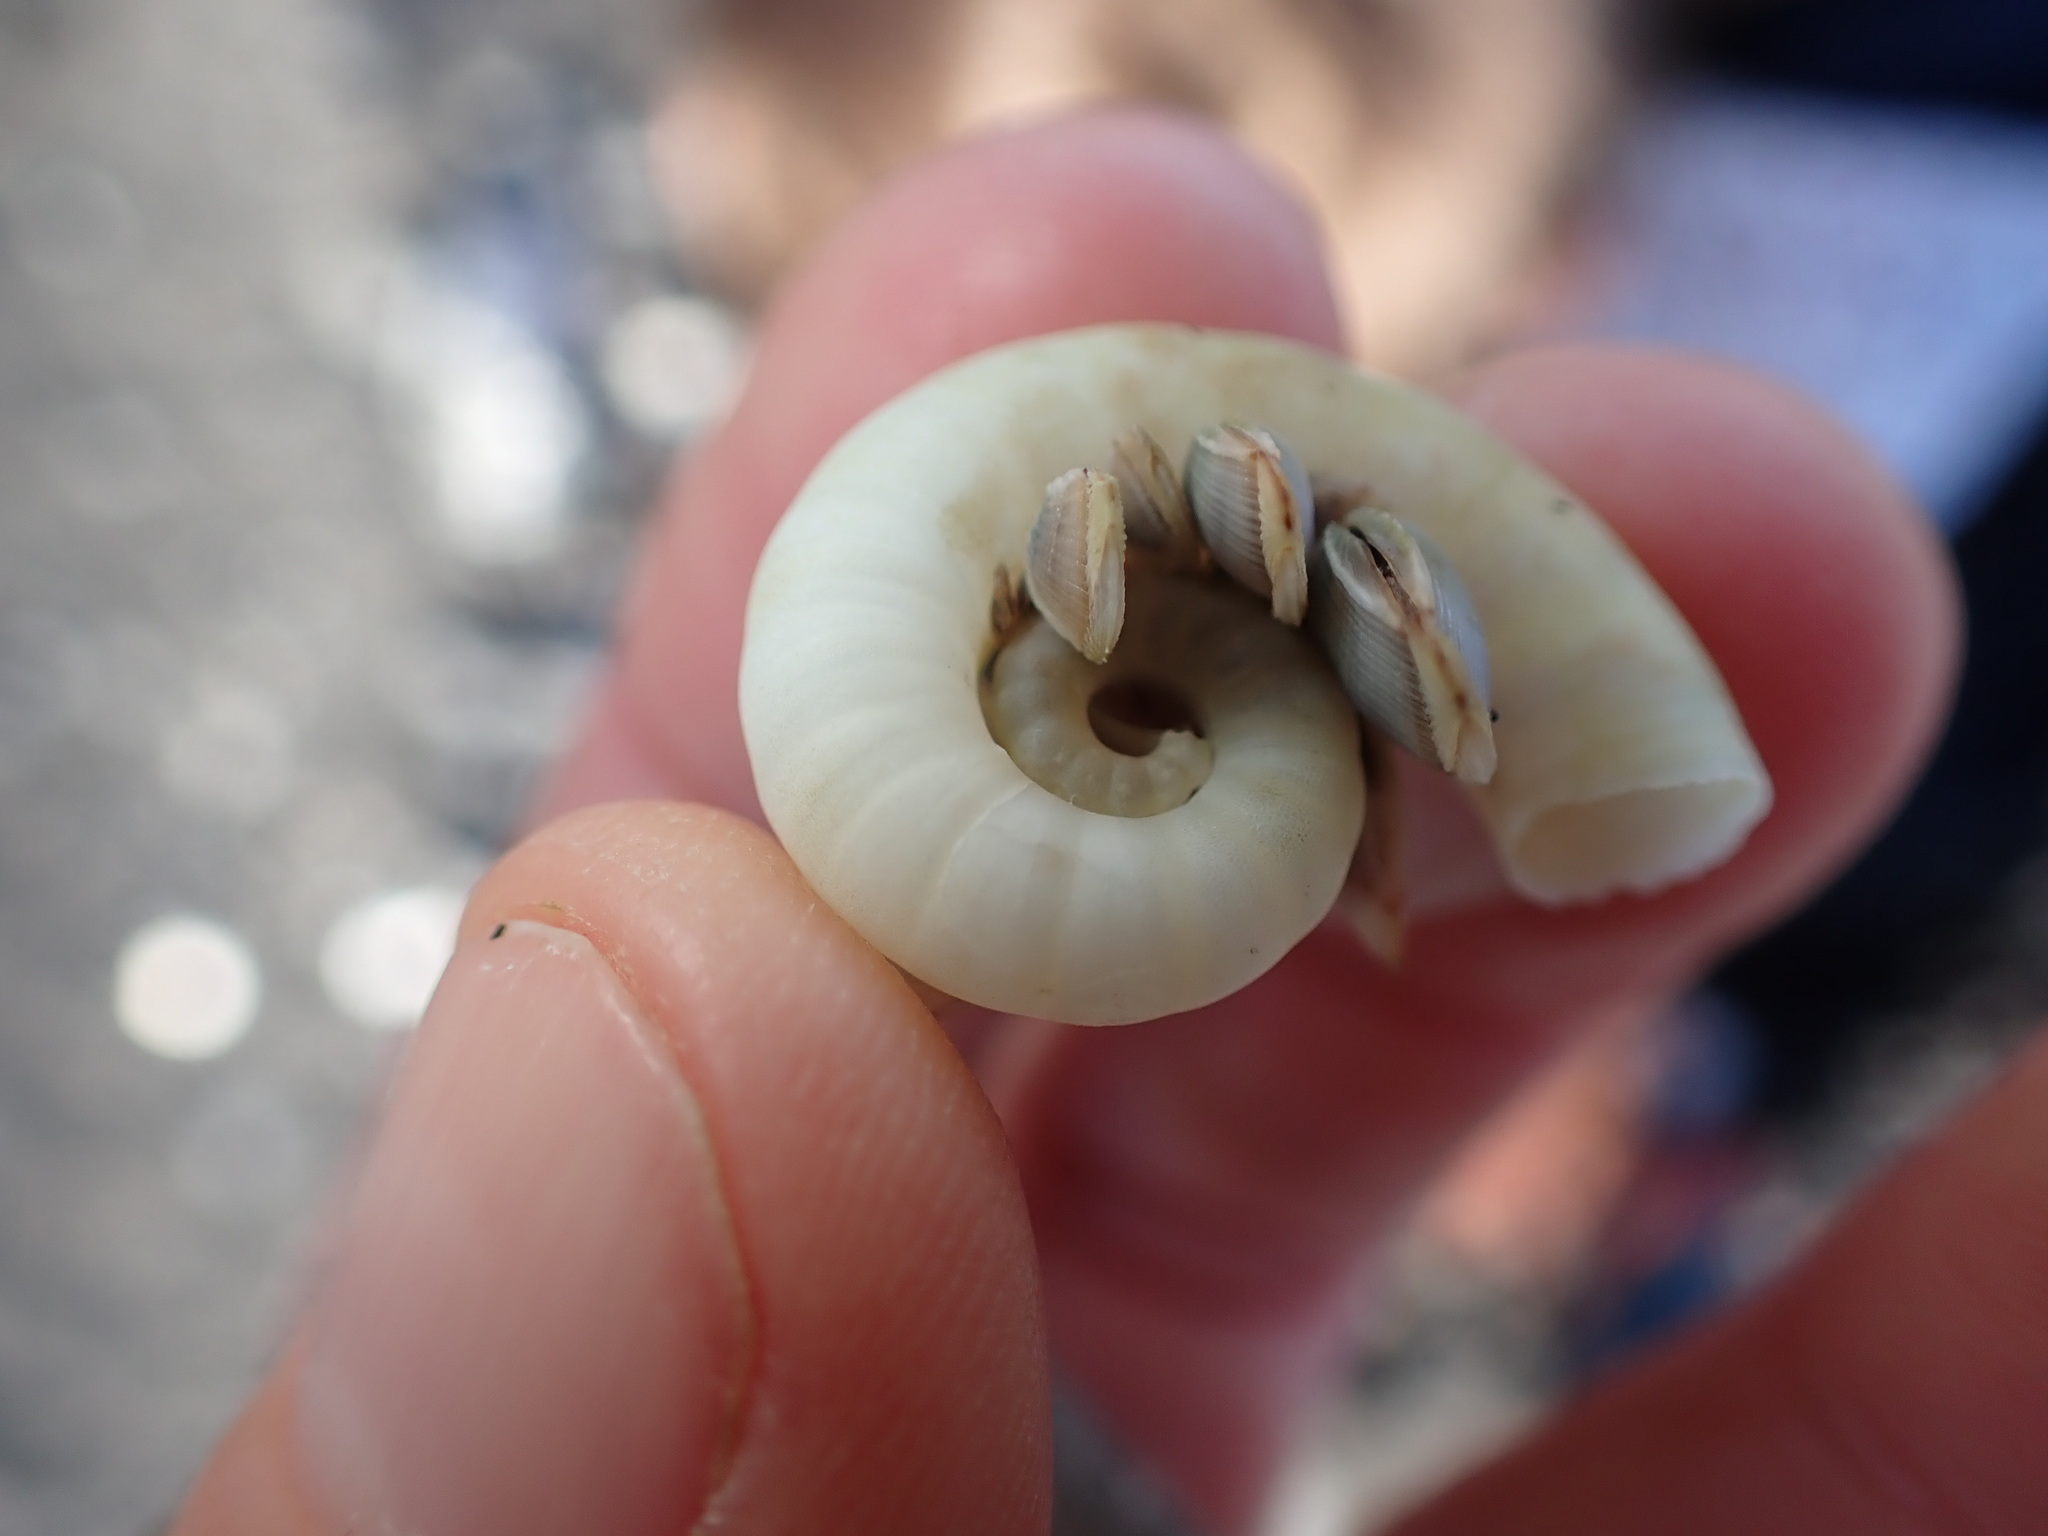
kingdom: Animalia
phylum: Mollusca
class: Cephalopoda
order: Spirulida
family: Spirulidae
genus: Spirula
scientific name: Spirula spirula
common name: Ram's horn squid
